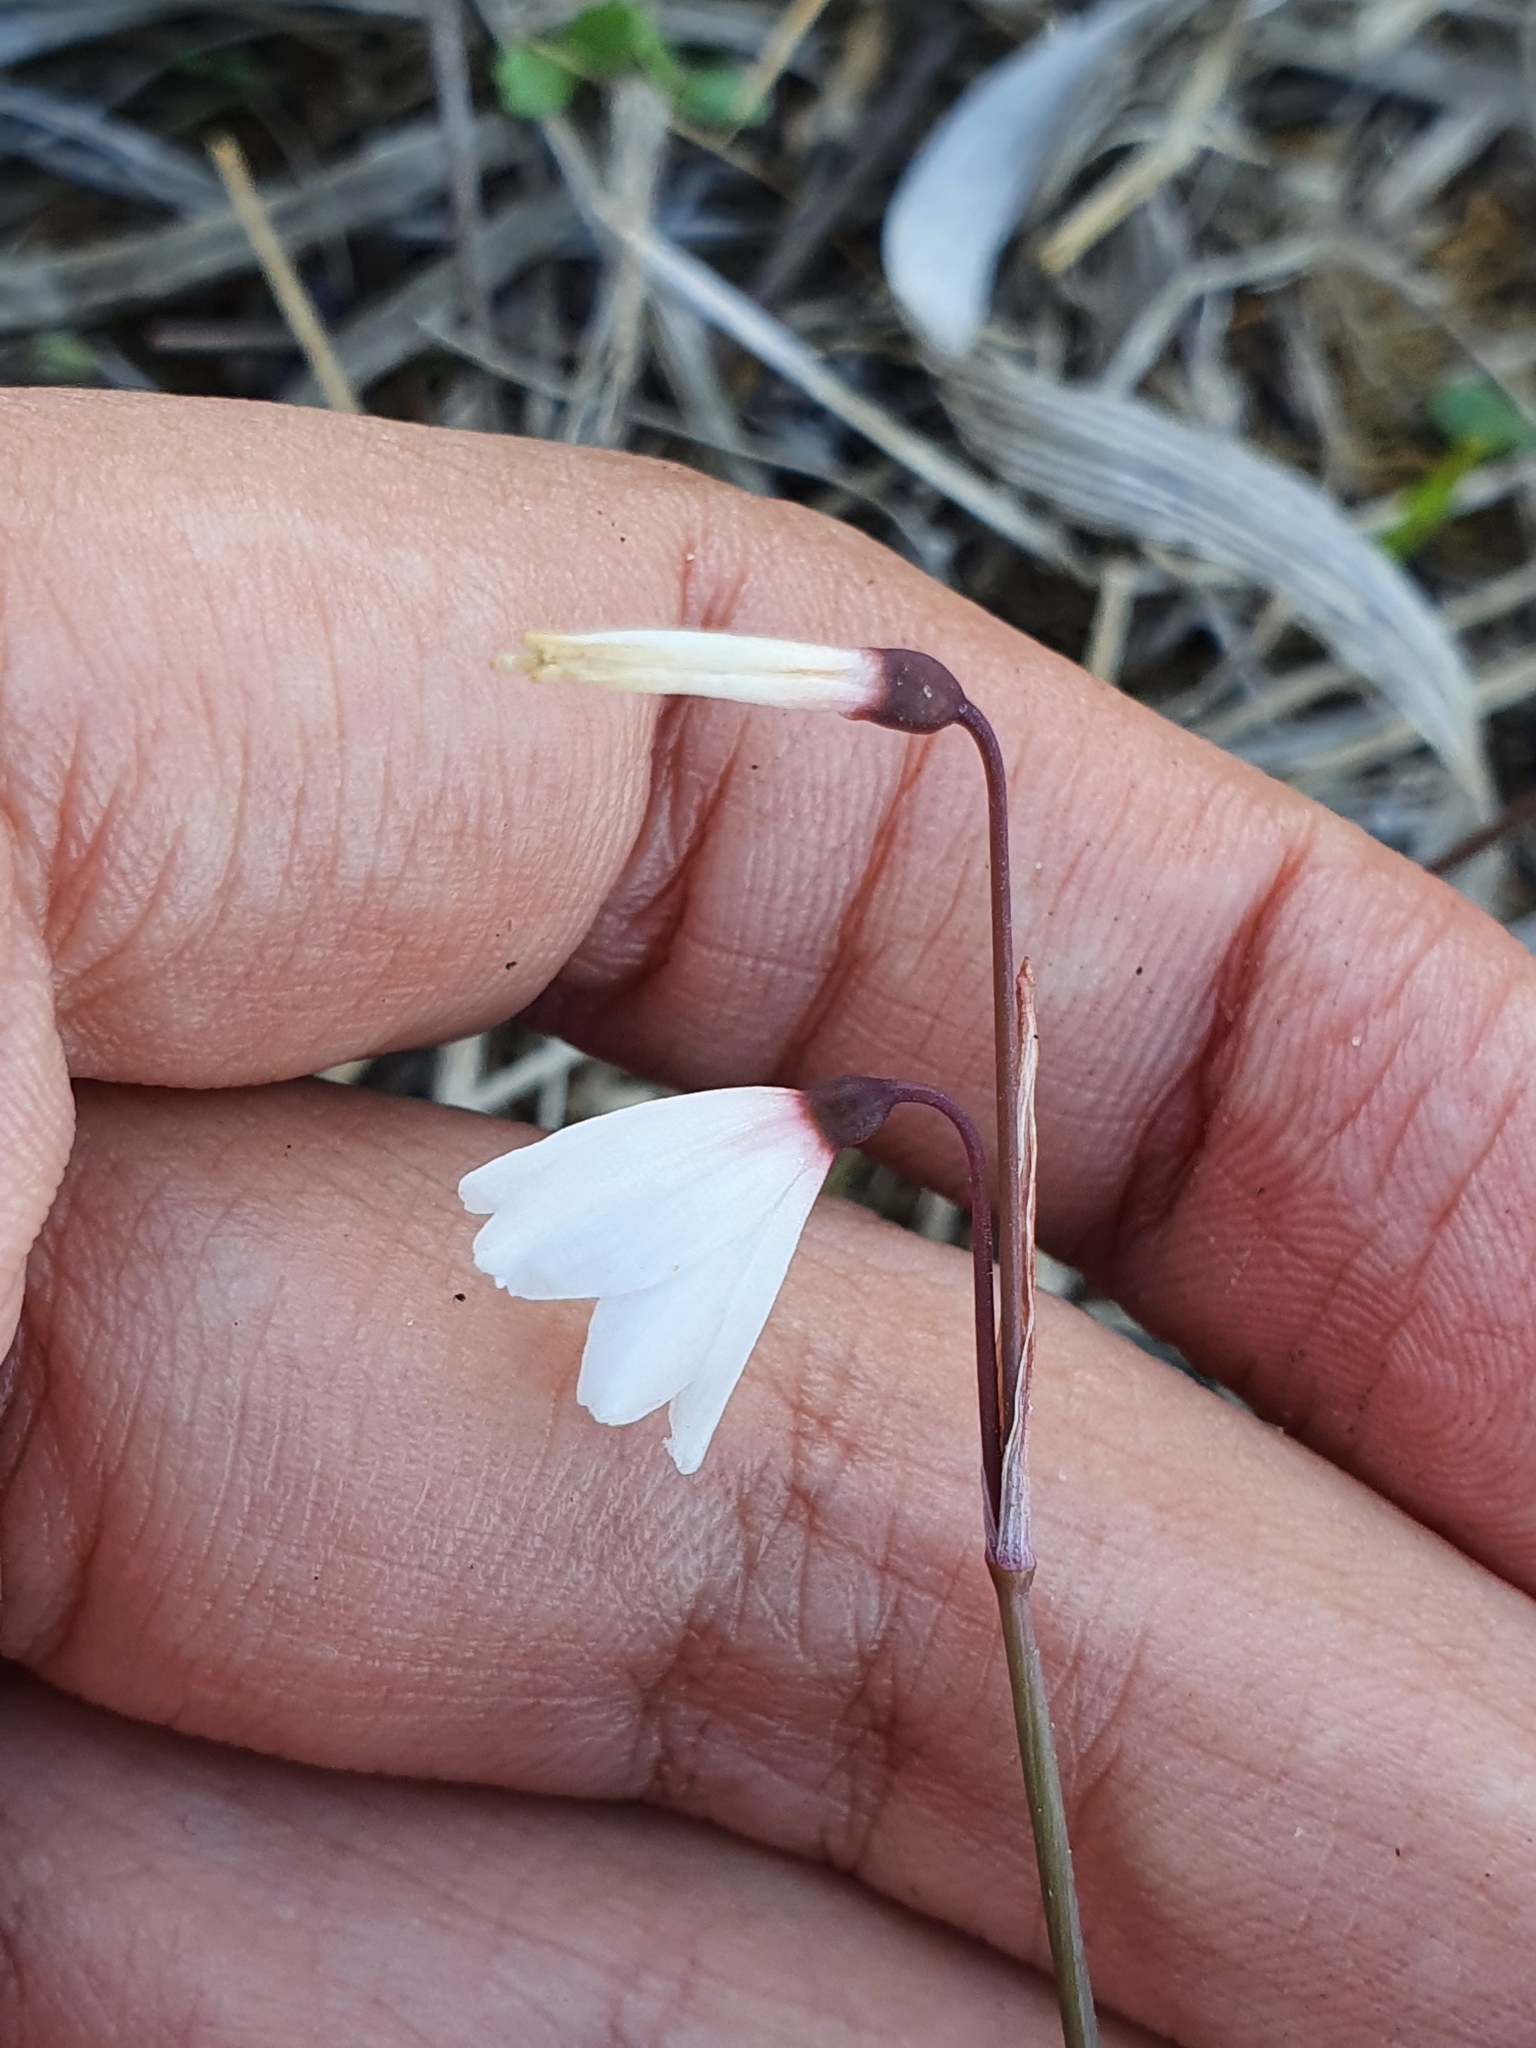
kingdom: Plantae
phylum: Tracheophyta
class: Liliopsida
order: Asparagales
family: Amaryllidaceae
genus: Acis
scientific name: Acis autumnalis
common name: Autumn snowflake
